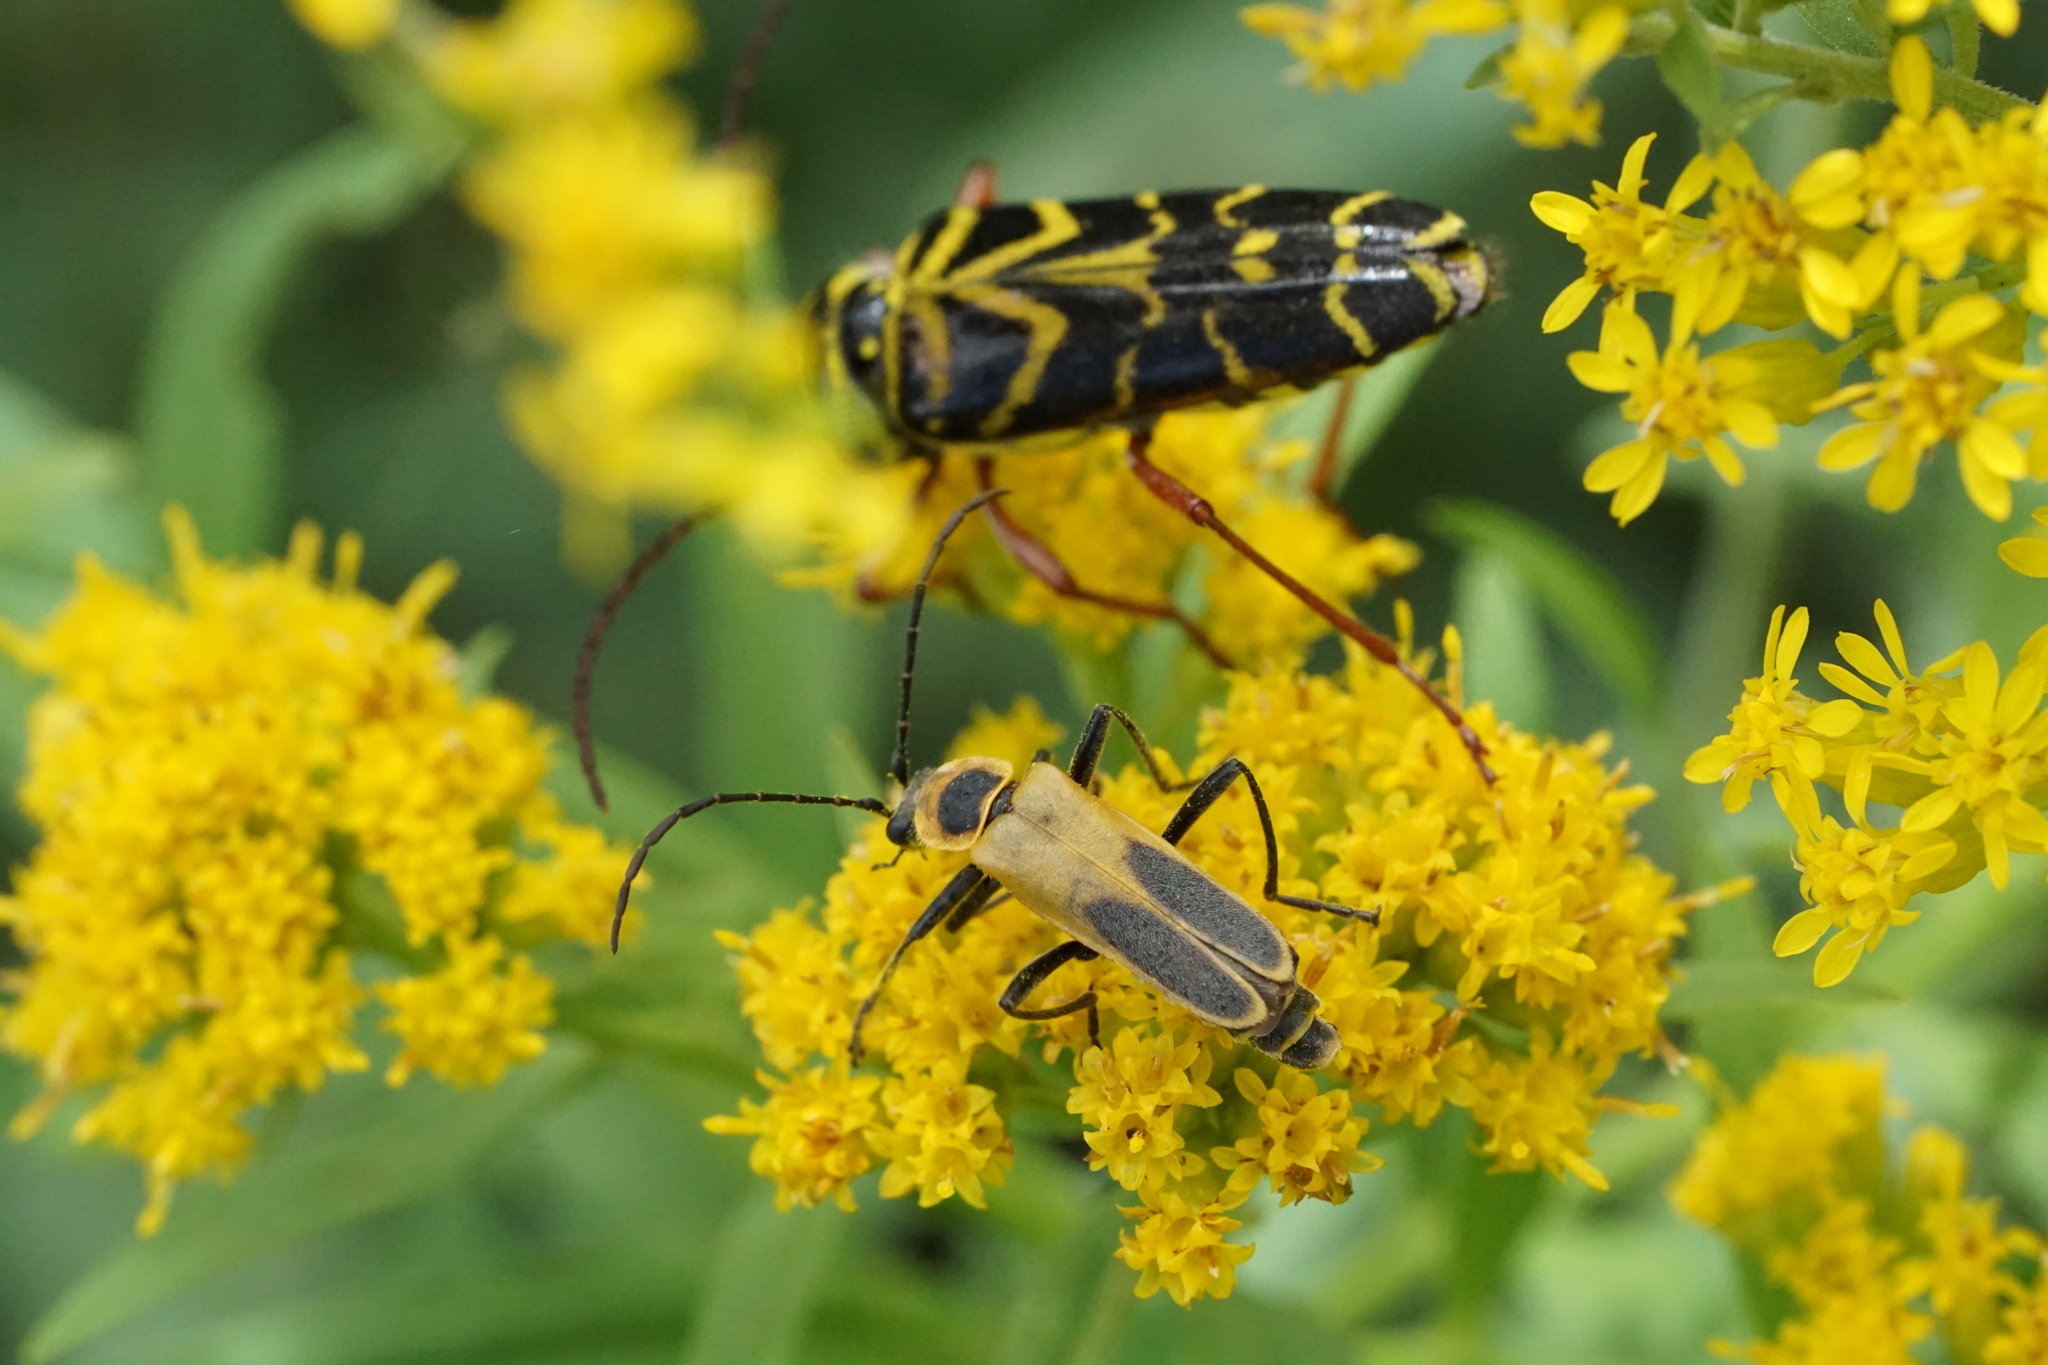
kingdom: Animalia
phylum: Arthropoda
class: Insecta
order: Coleoptera
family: Cantharidae
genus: Chauliognathus
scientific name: Chauliognathus pensylvanicus
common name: Goldenrod soldier beetle
